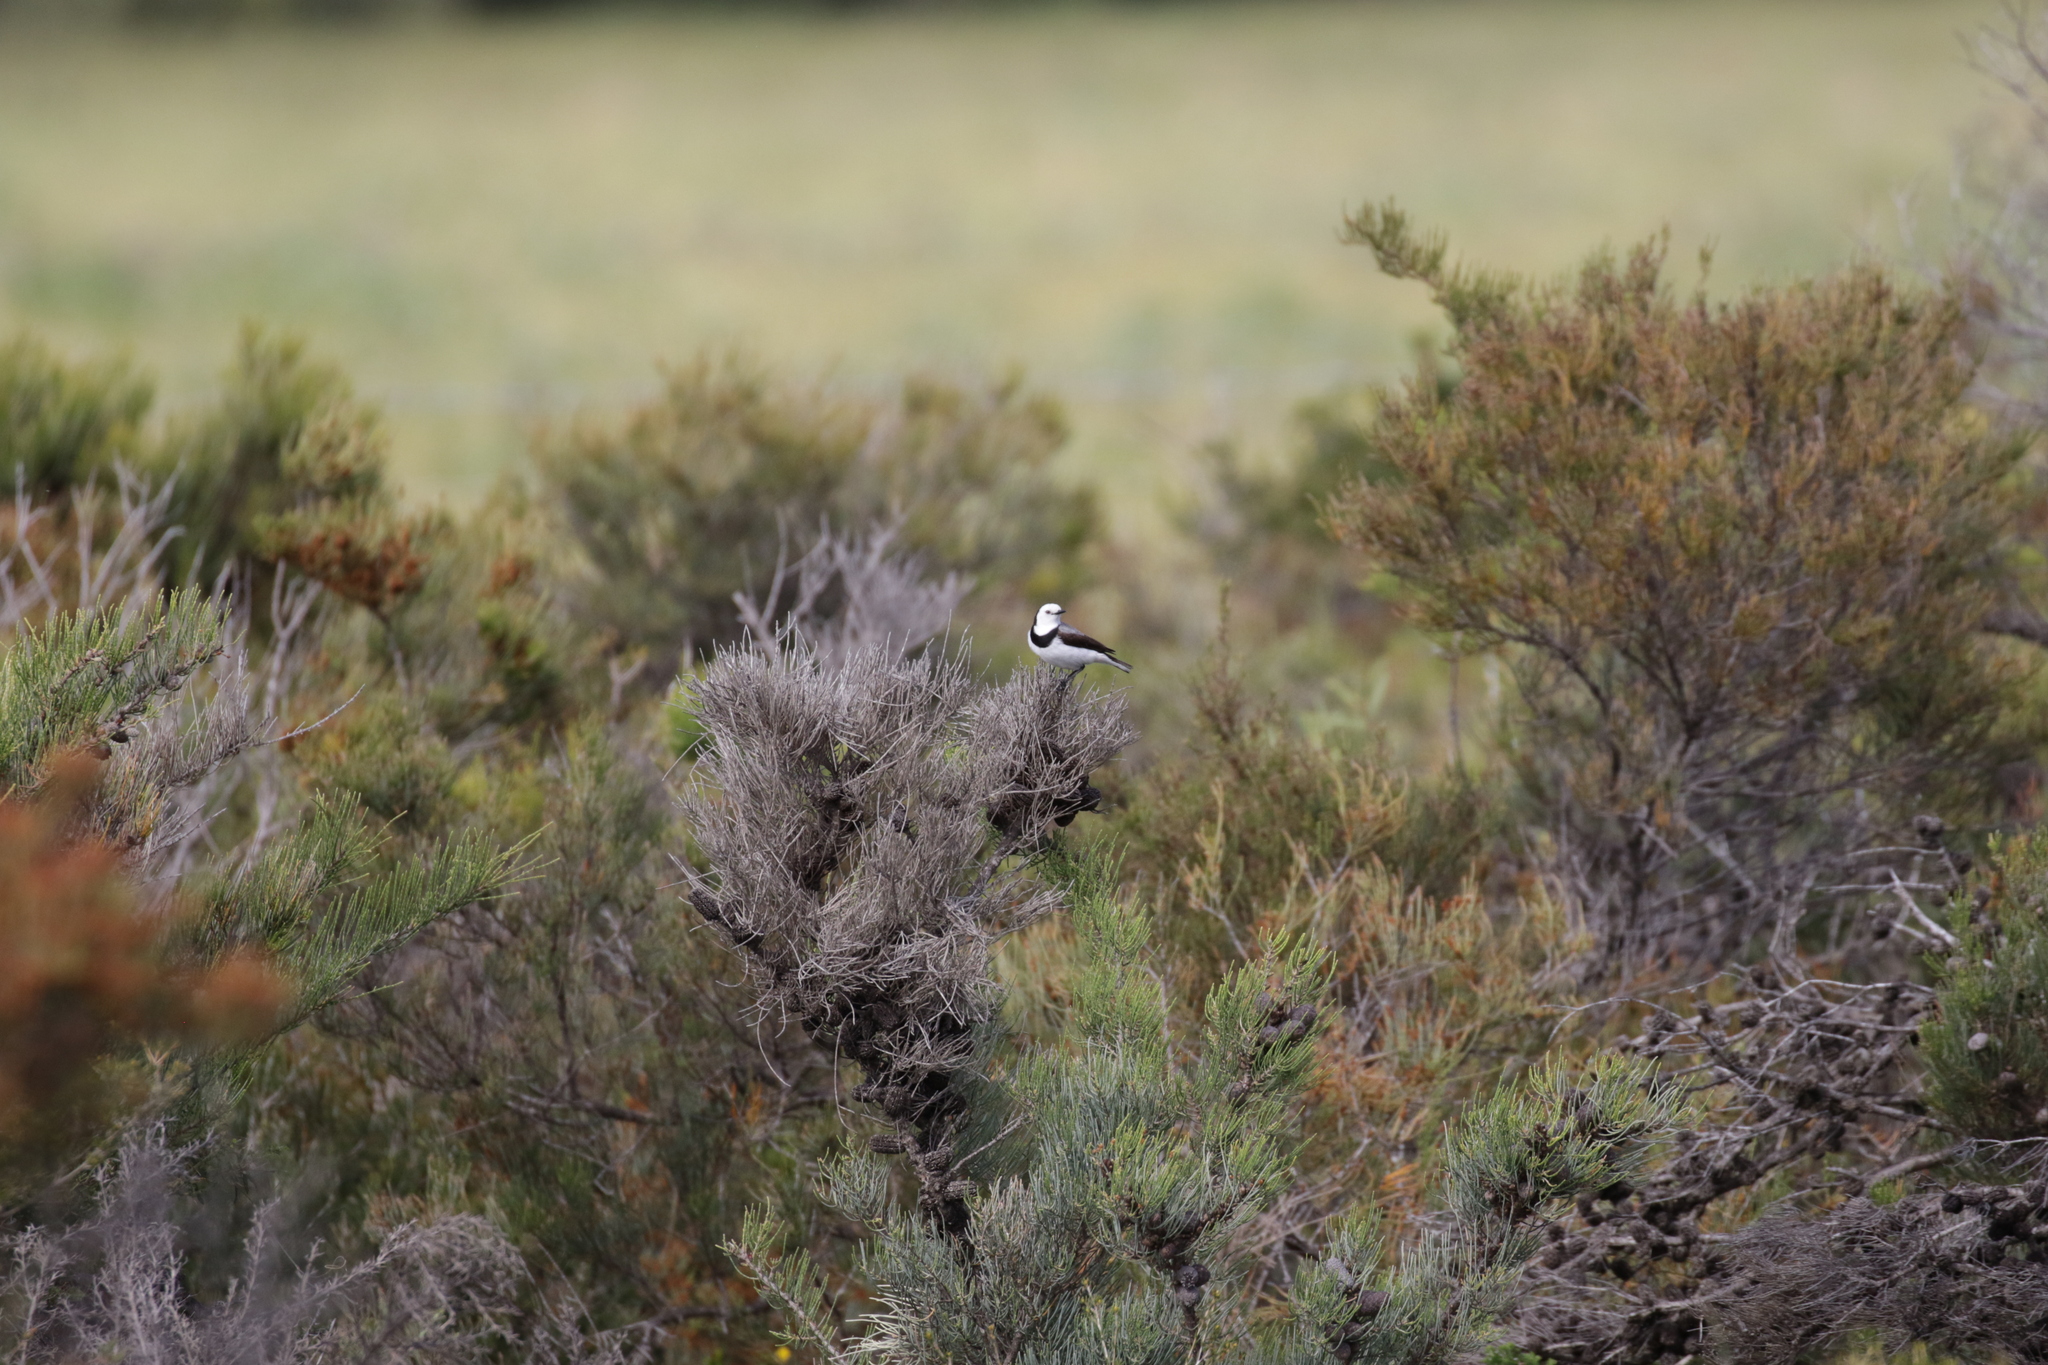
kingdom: Animalia
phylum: Chordata
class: Aves
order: Passeriformes
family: Meliphagidae
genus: Epthianura
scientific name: Epthianura albifrons
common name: White-fronted chat
